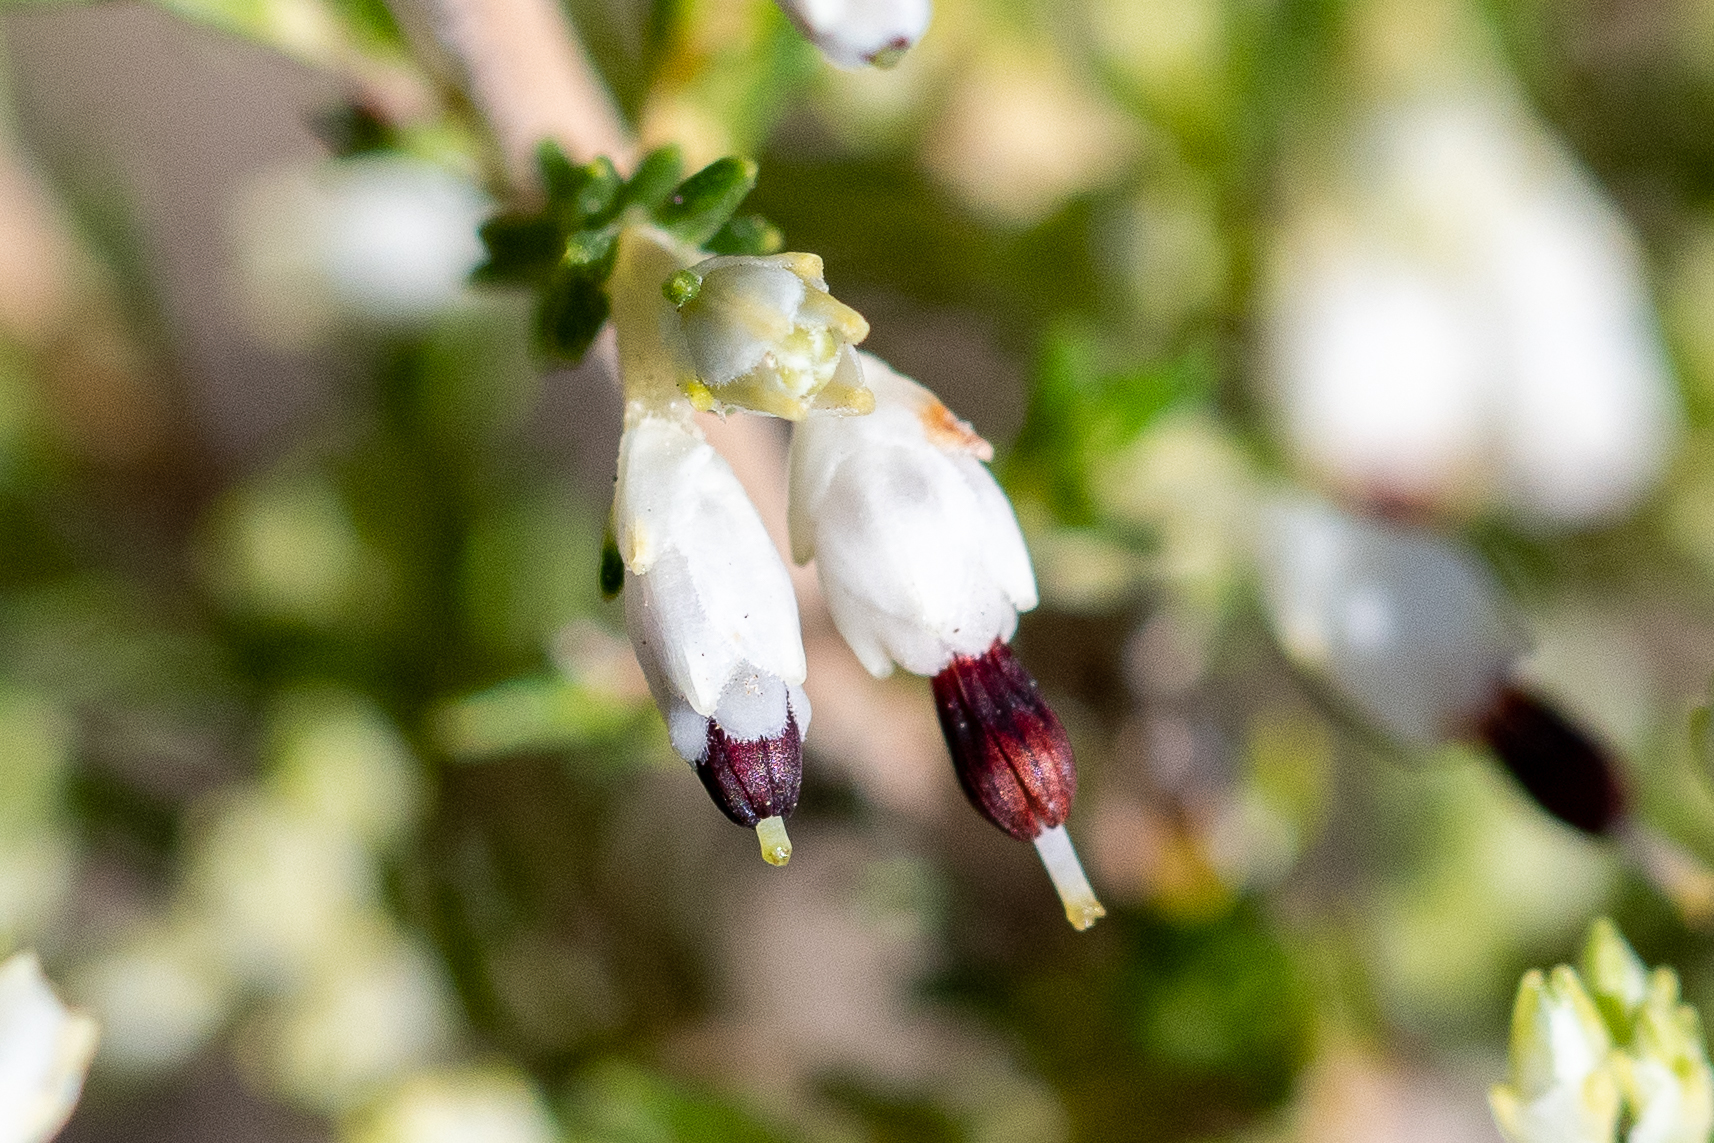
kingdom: Plantae
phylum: Tracheophyta
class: Magnoliopsida
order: Ericales
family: Ericaceae
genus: Erica
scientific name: Erica imbricata
